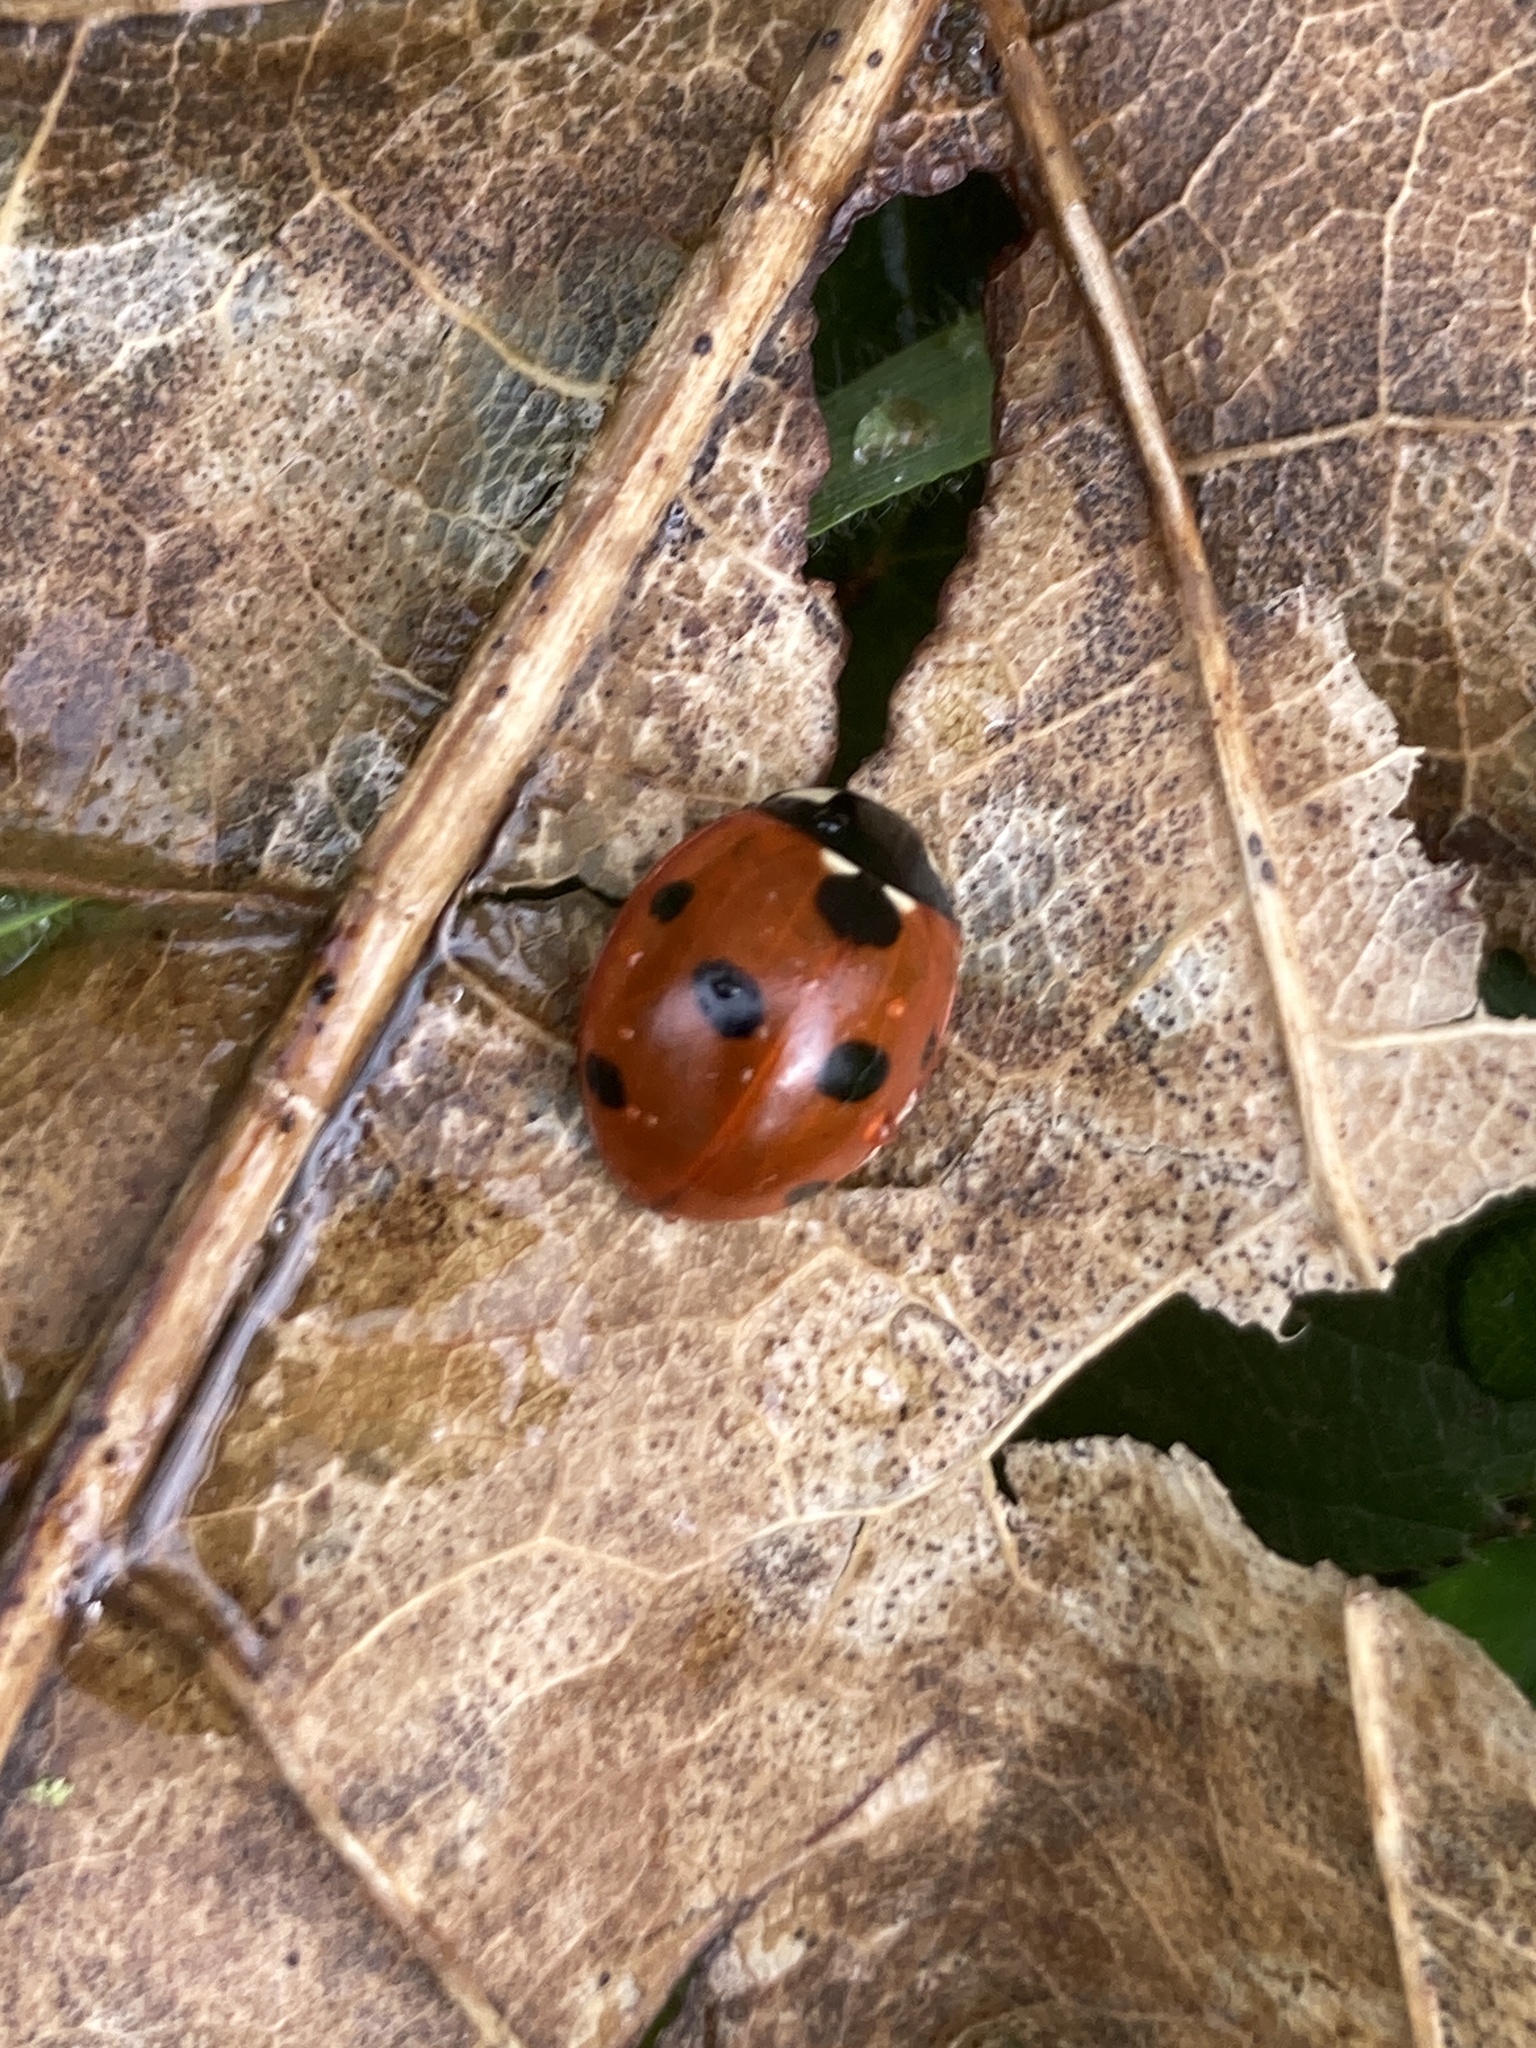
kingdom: Animalia
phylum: Arthropoda
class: Insecta
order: Coleoptera
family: Coccinellidae
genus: Coccinella
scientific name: Coccinella septempunctata
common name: Sevenspotted lady beetle
